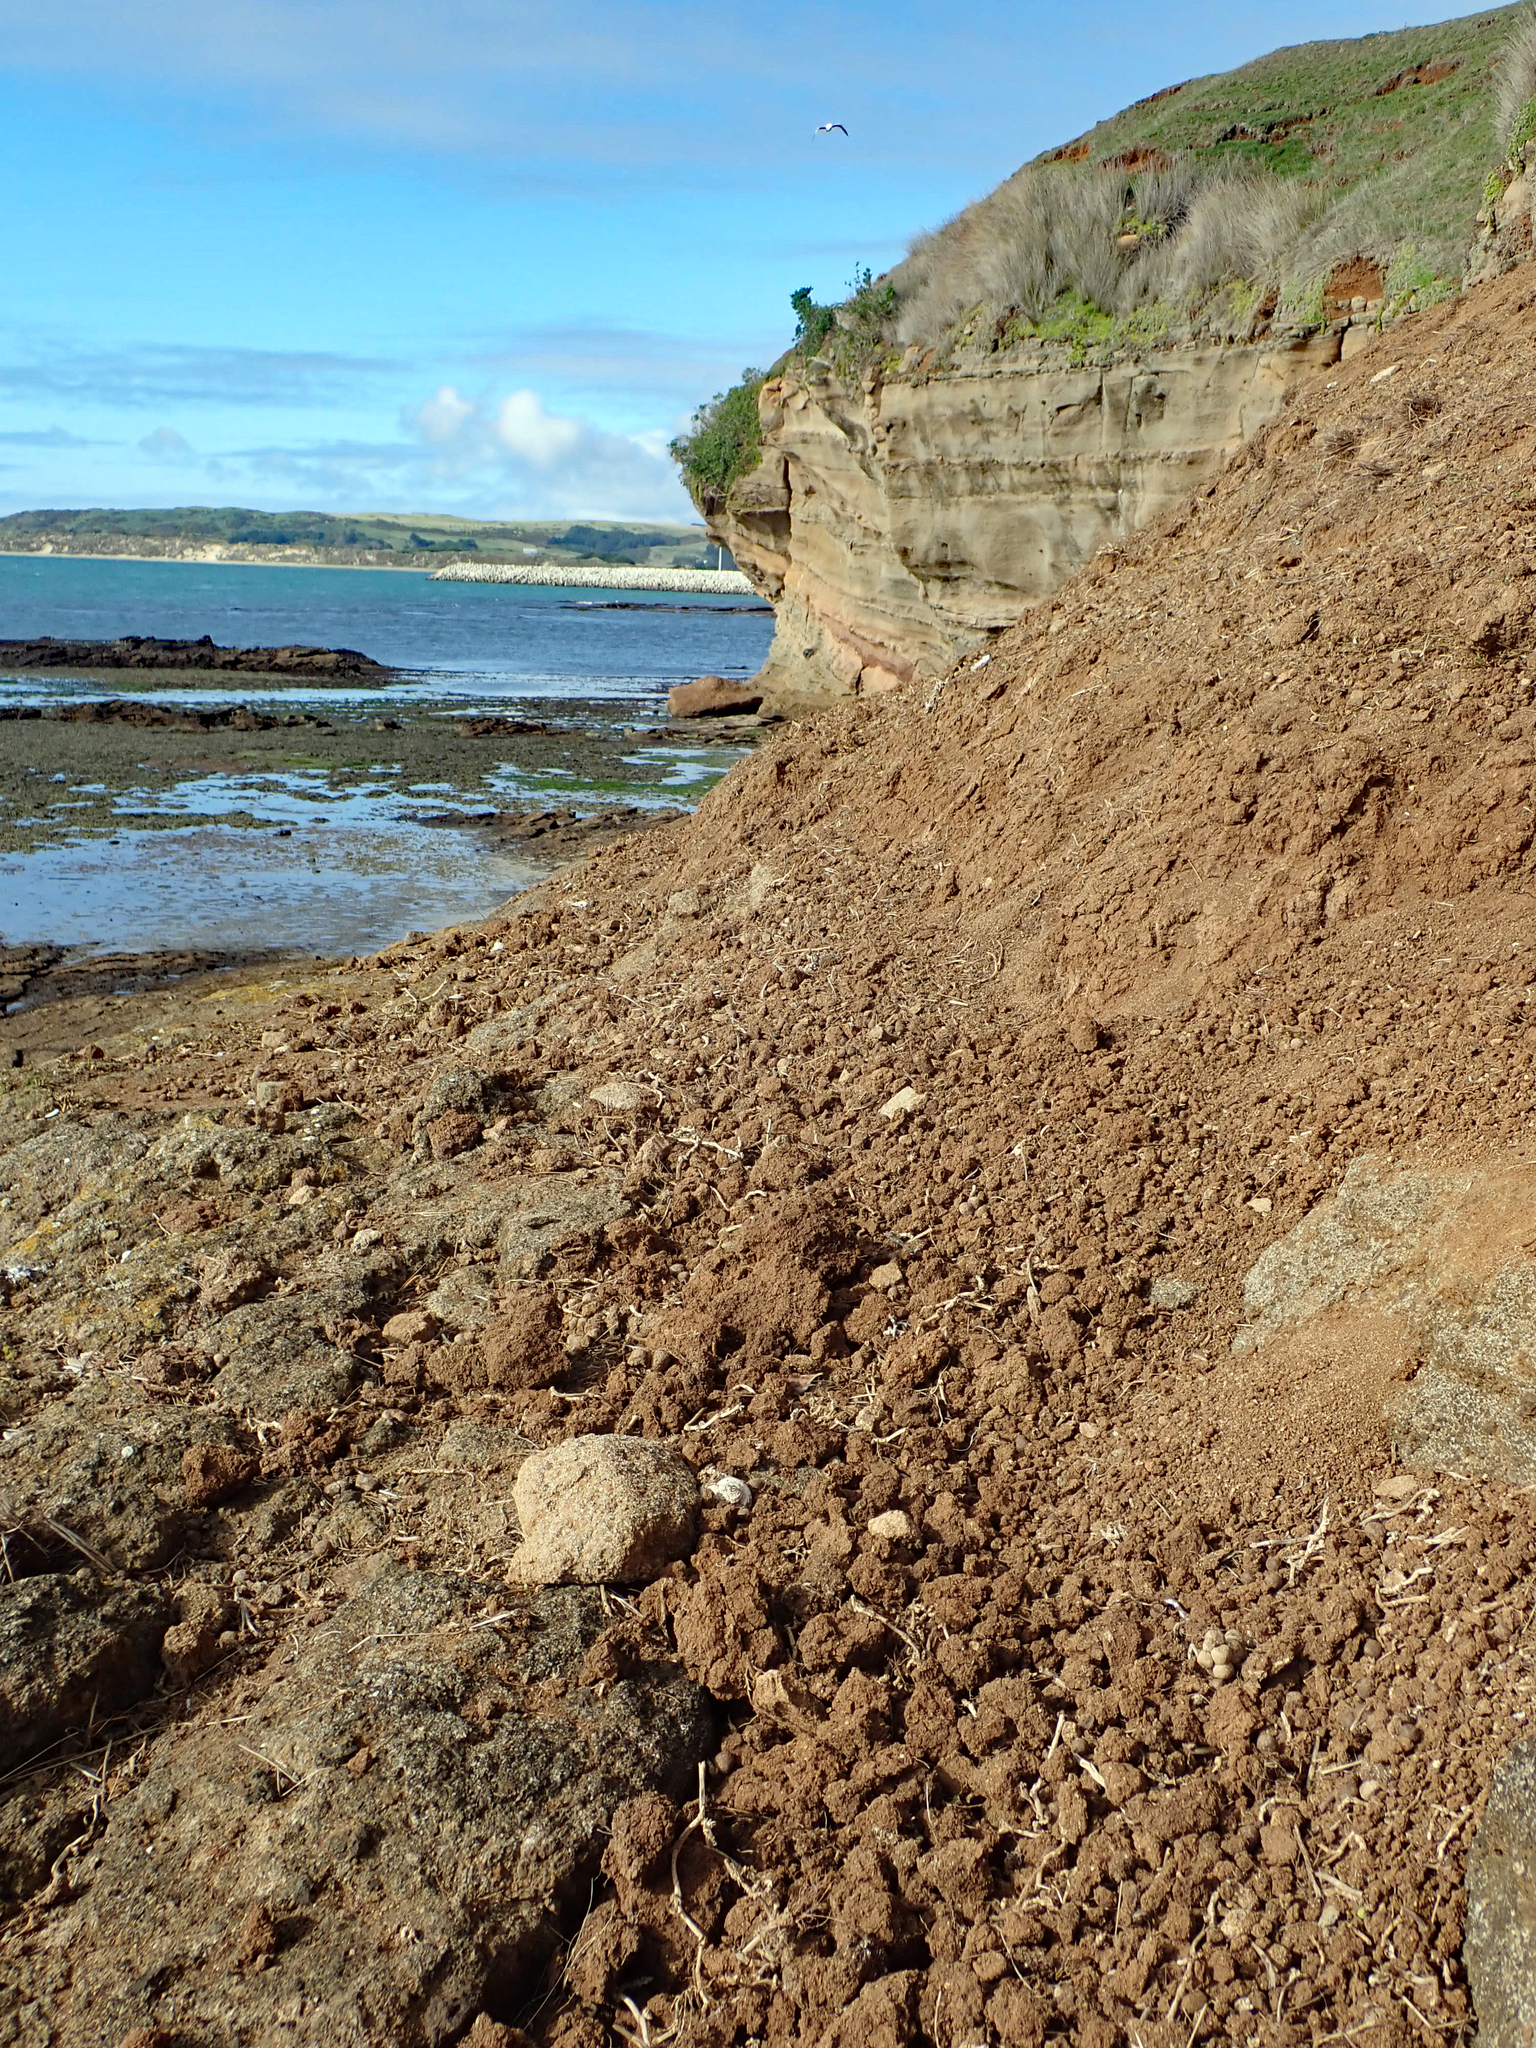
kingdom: Fungi
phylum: Ascomycota
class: Lecanoromycetes
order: Teloschistales
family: Teloschistaceae
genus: Caloplaca
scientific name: Caloplaca maculata
